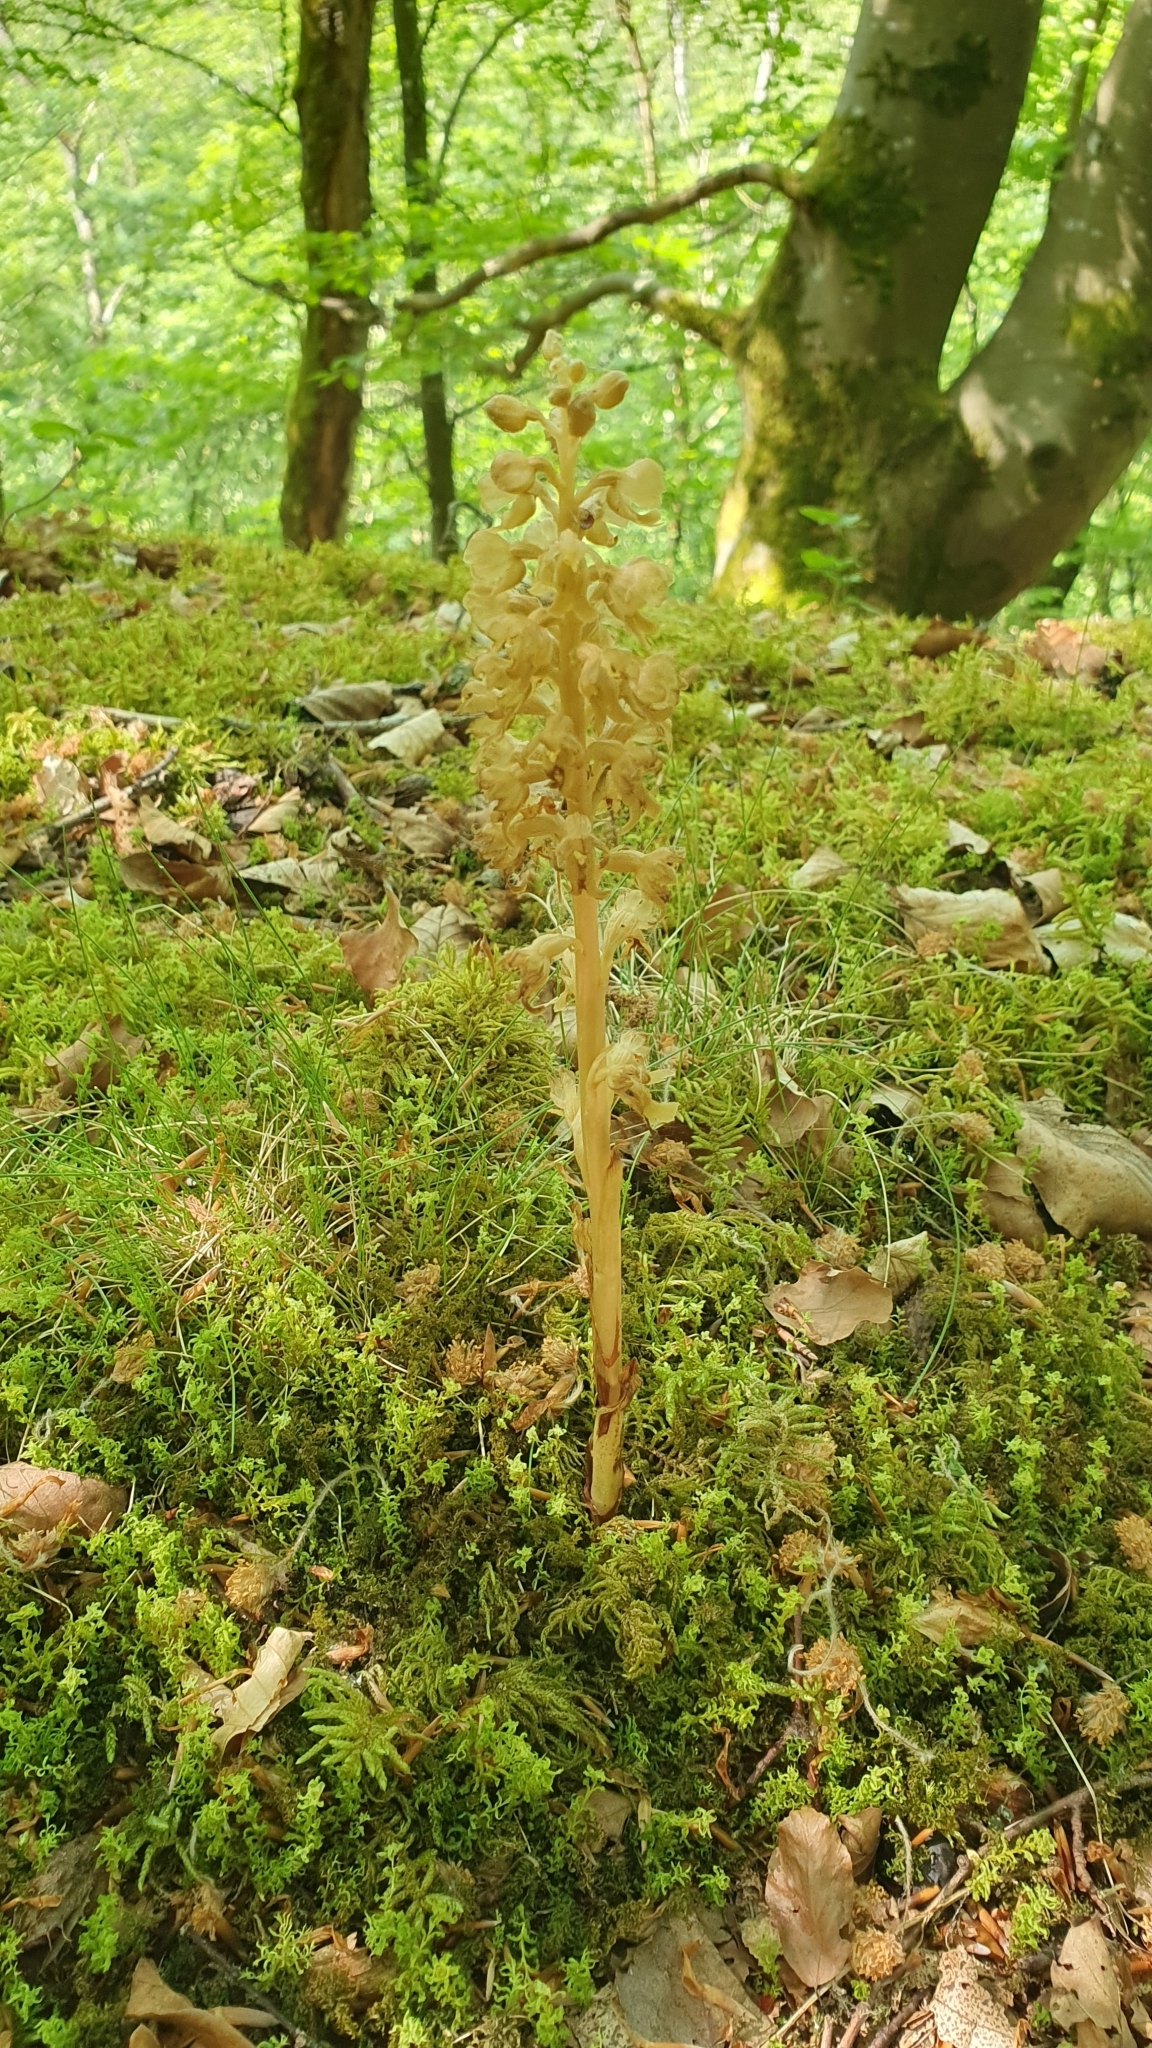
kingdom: Plantae
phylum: Tracheophyta
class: Liliopsida
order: Asparagales
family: Orchidaceae
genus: Neottia
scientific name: Neottia nidus-avis
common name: Bird's-nest orchid
